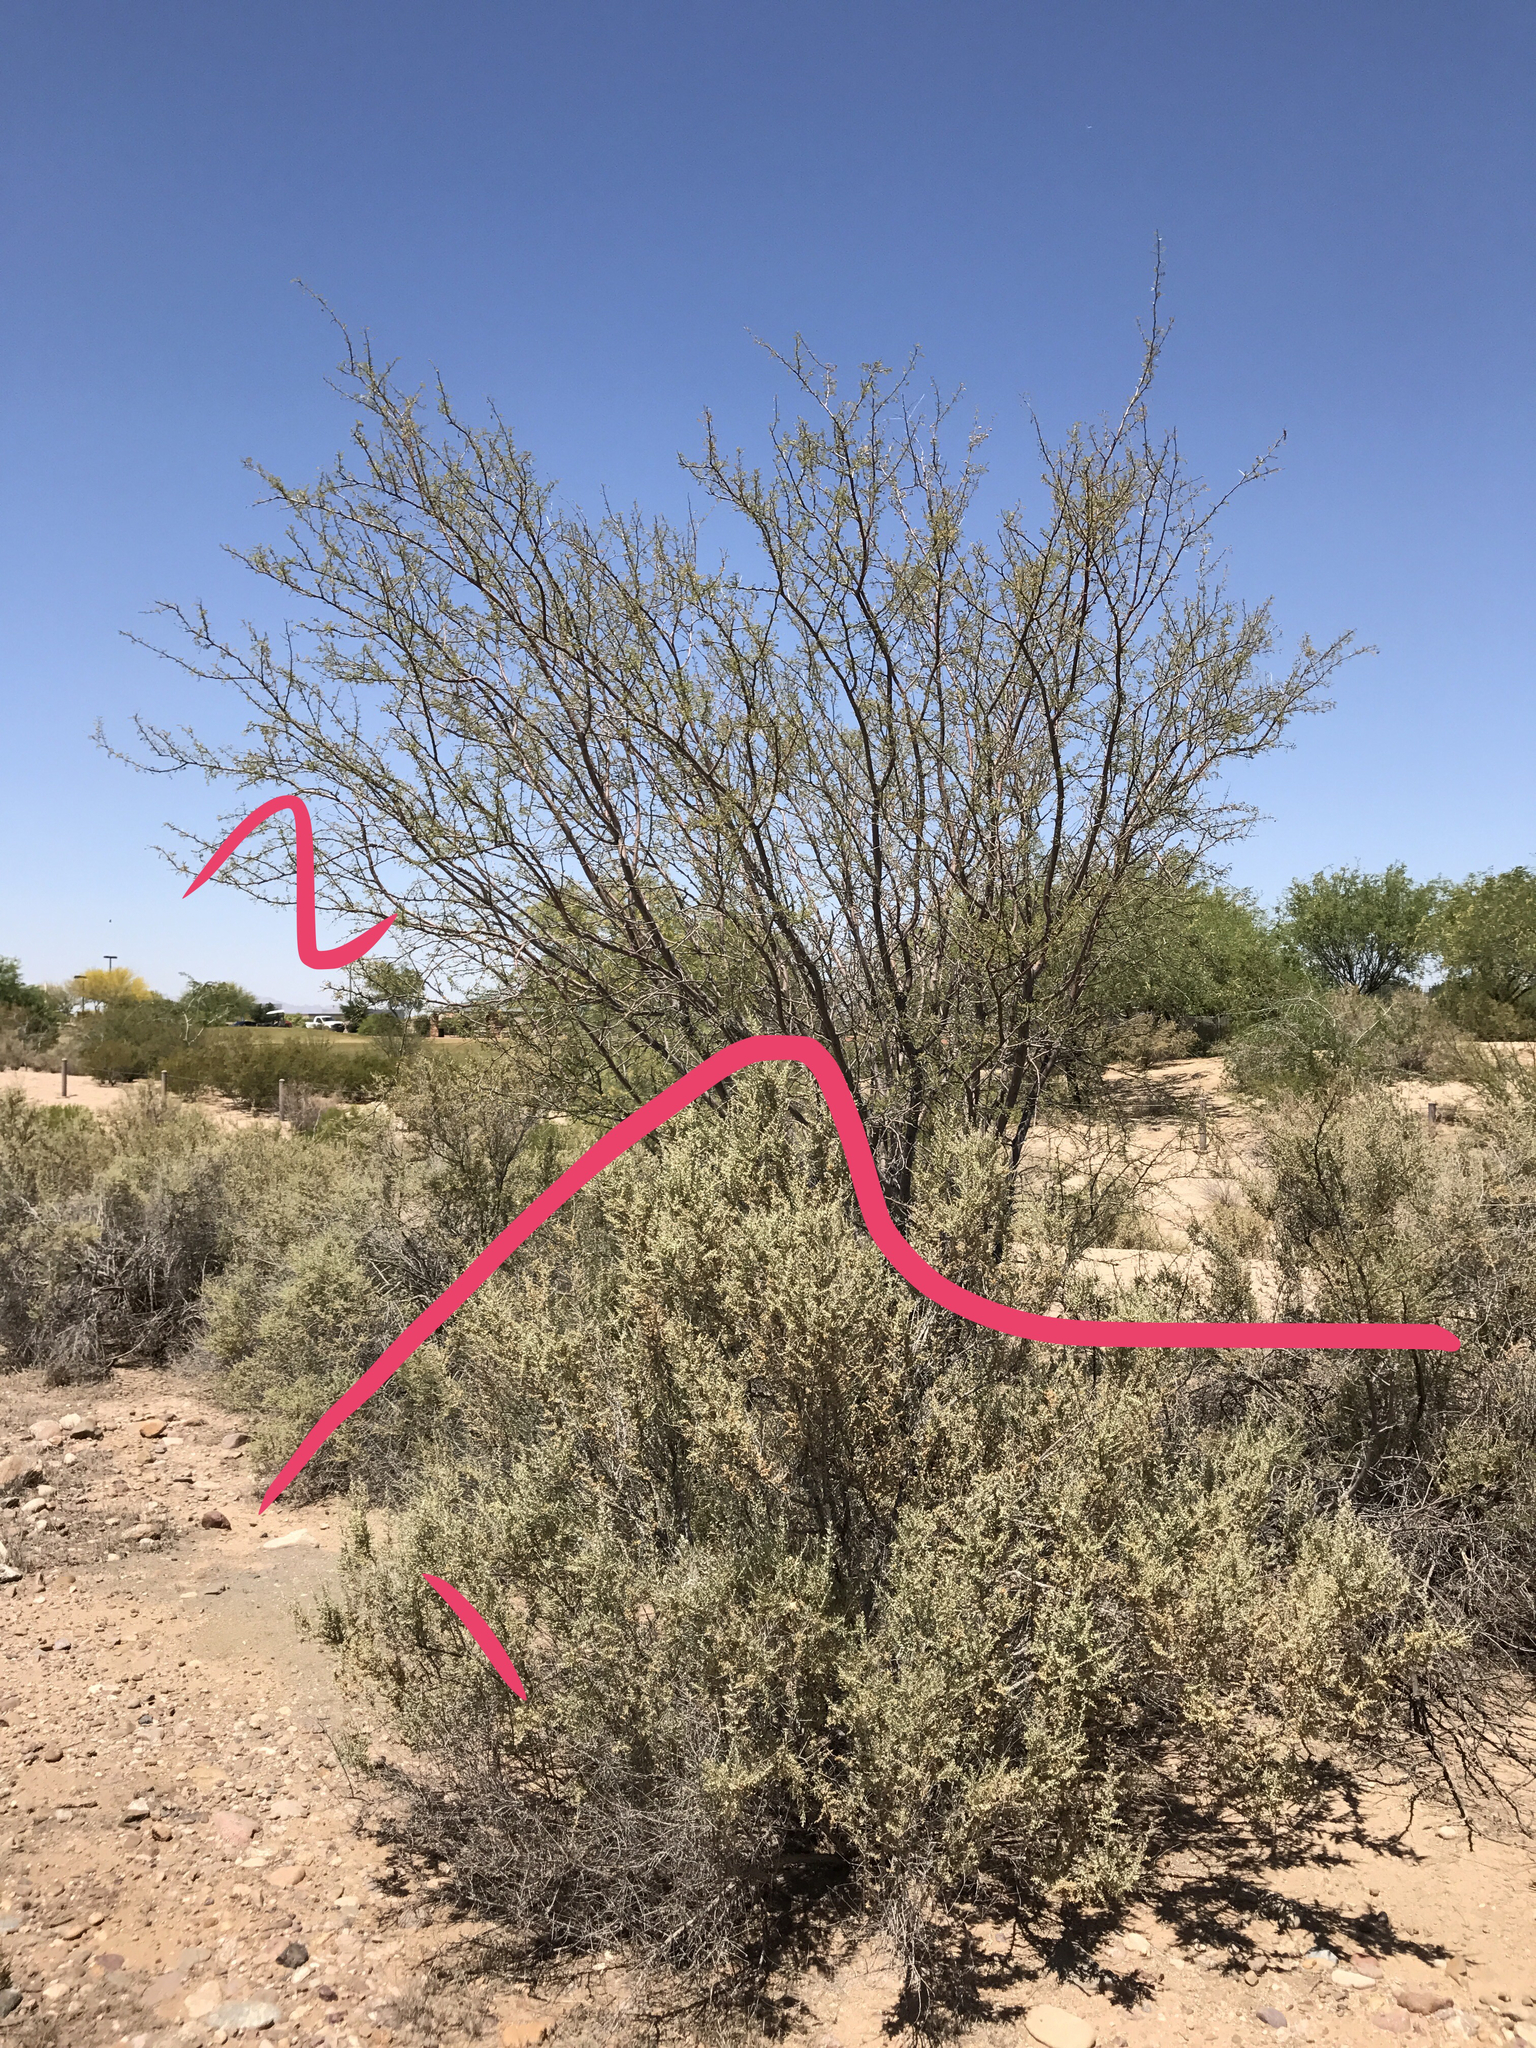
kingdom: Plantae
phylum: Tracheophyta
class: Magnoliopsida
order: Caryophyllales
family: Amaranthaceae
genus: Atriplex
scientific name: Atriplex polycarpa
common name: Desert saltbush
